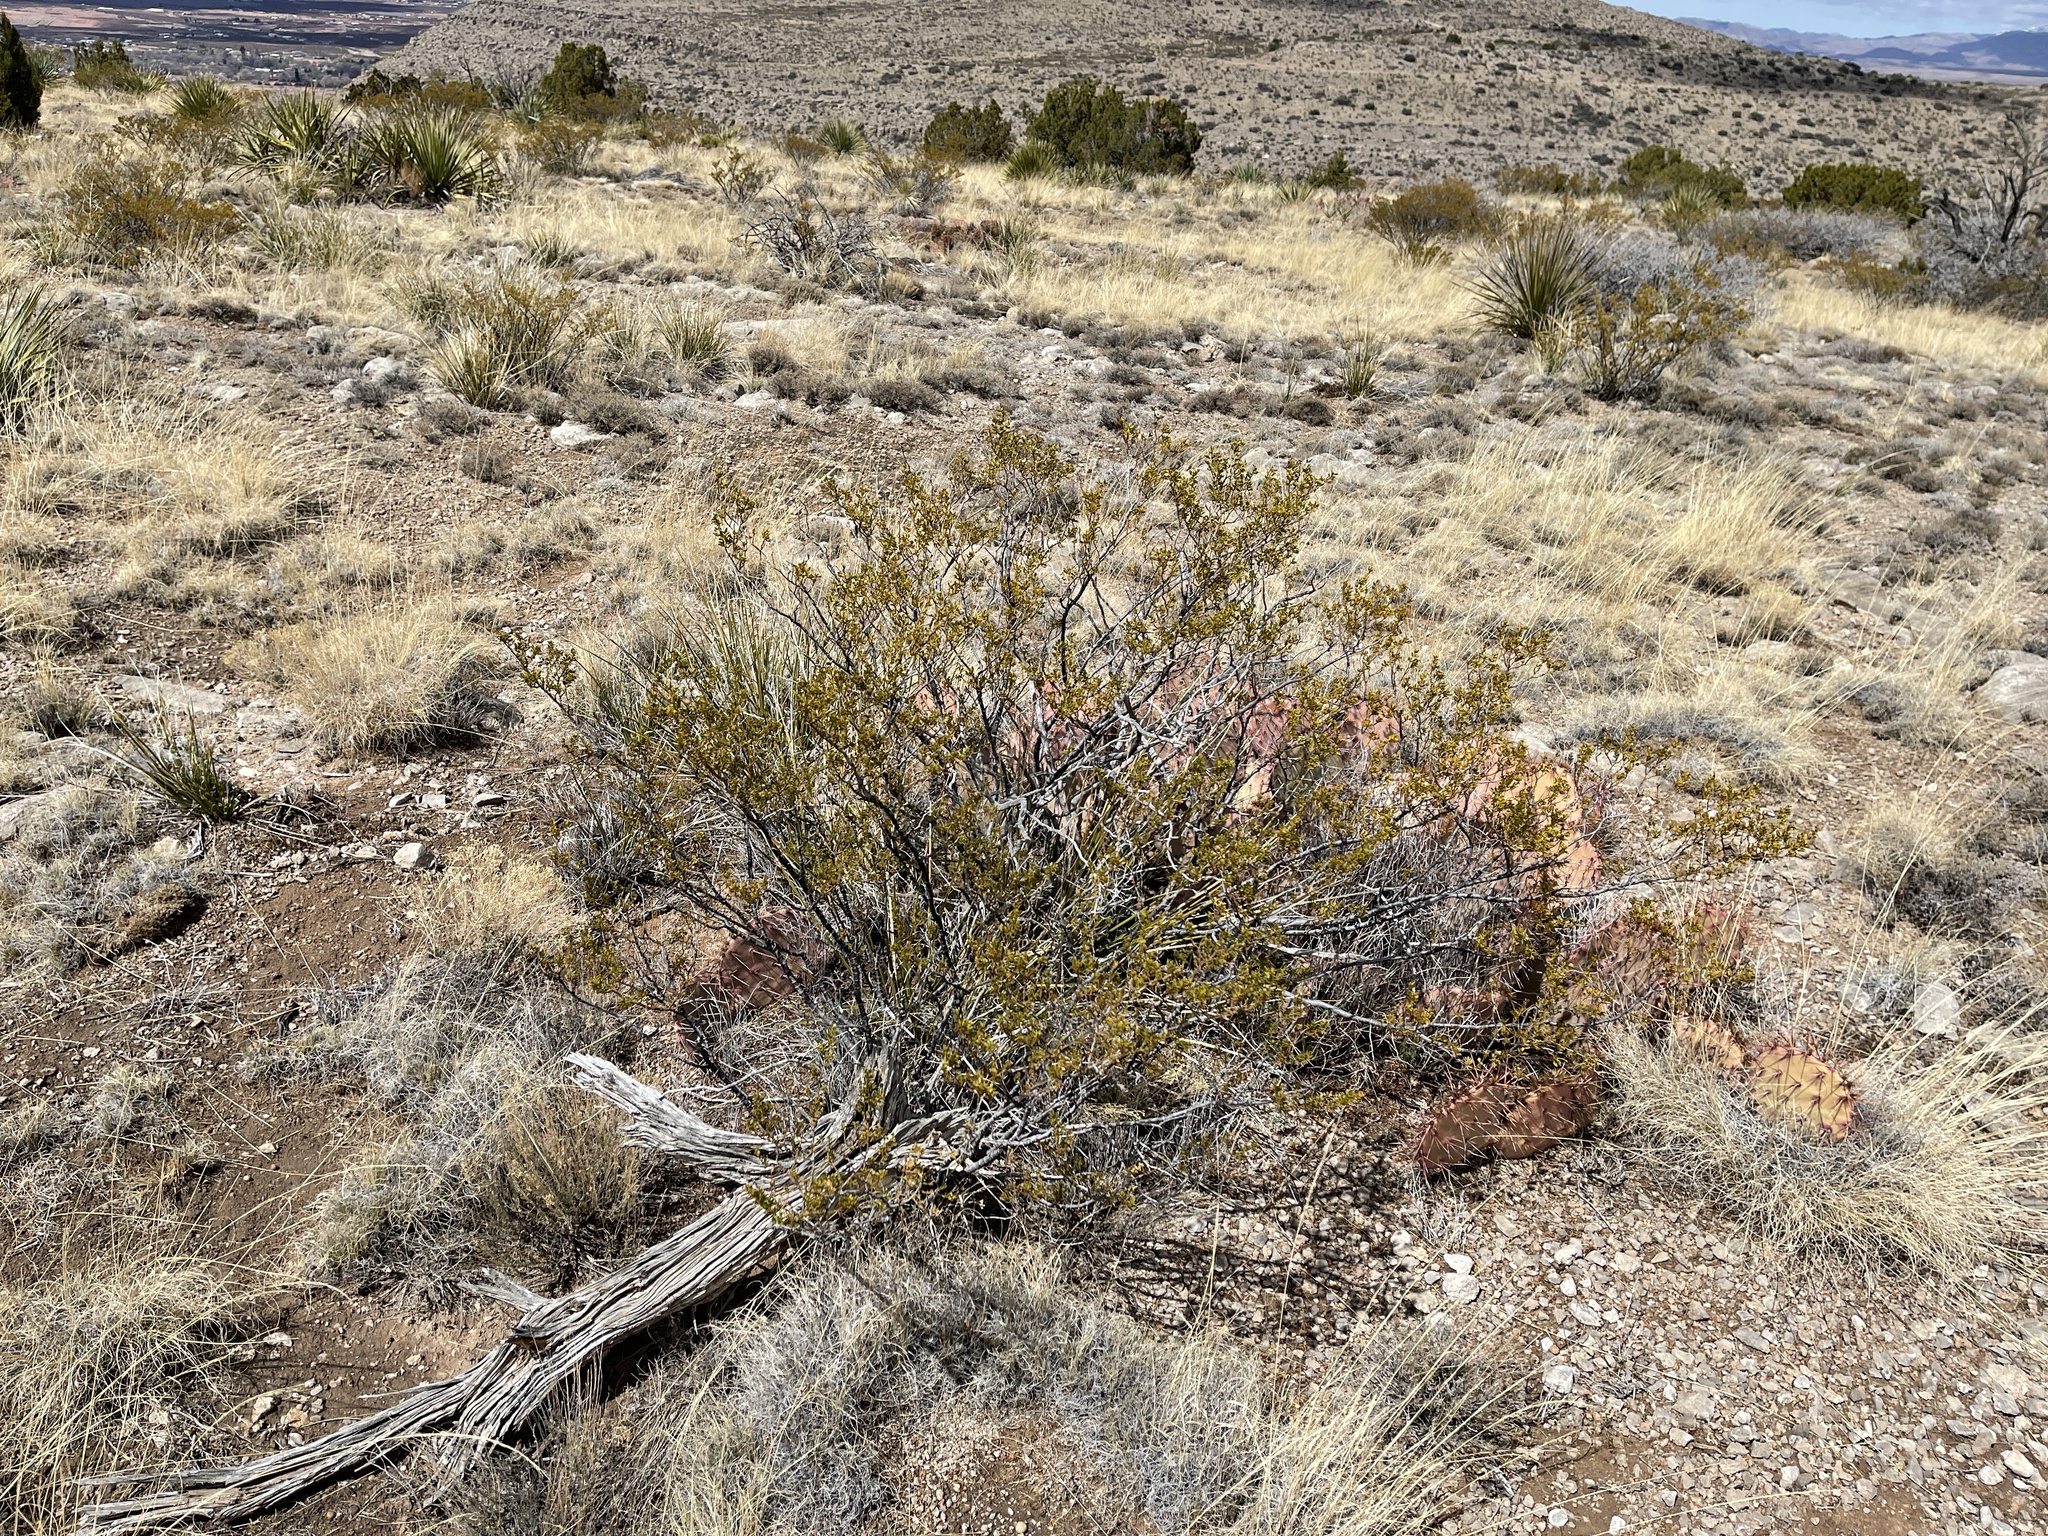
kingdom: Plantae
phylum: Tracheophyta
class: Magnoliopsida
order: Zygophyllales
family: Zygophyllaceae
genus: Larrea
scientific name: Larrea tridentata
